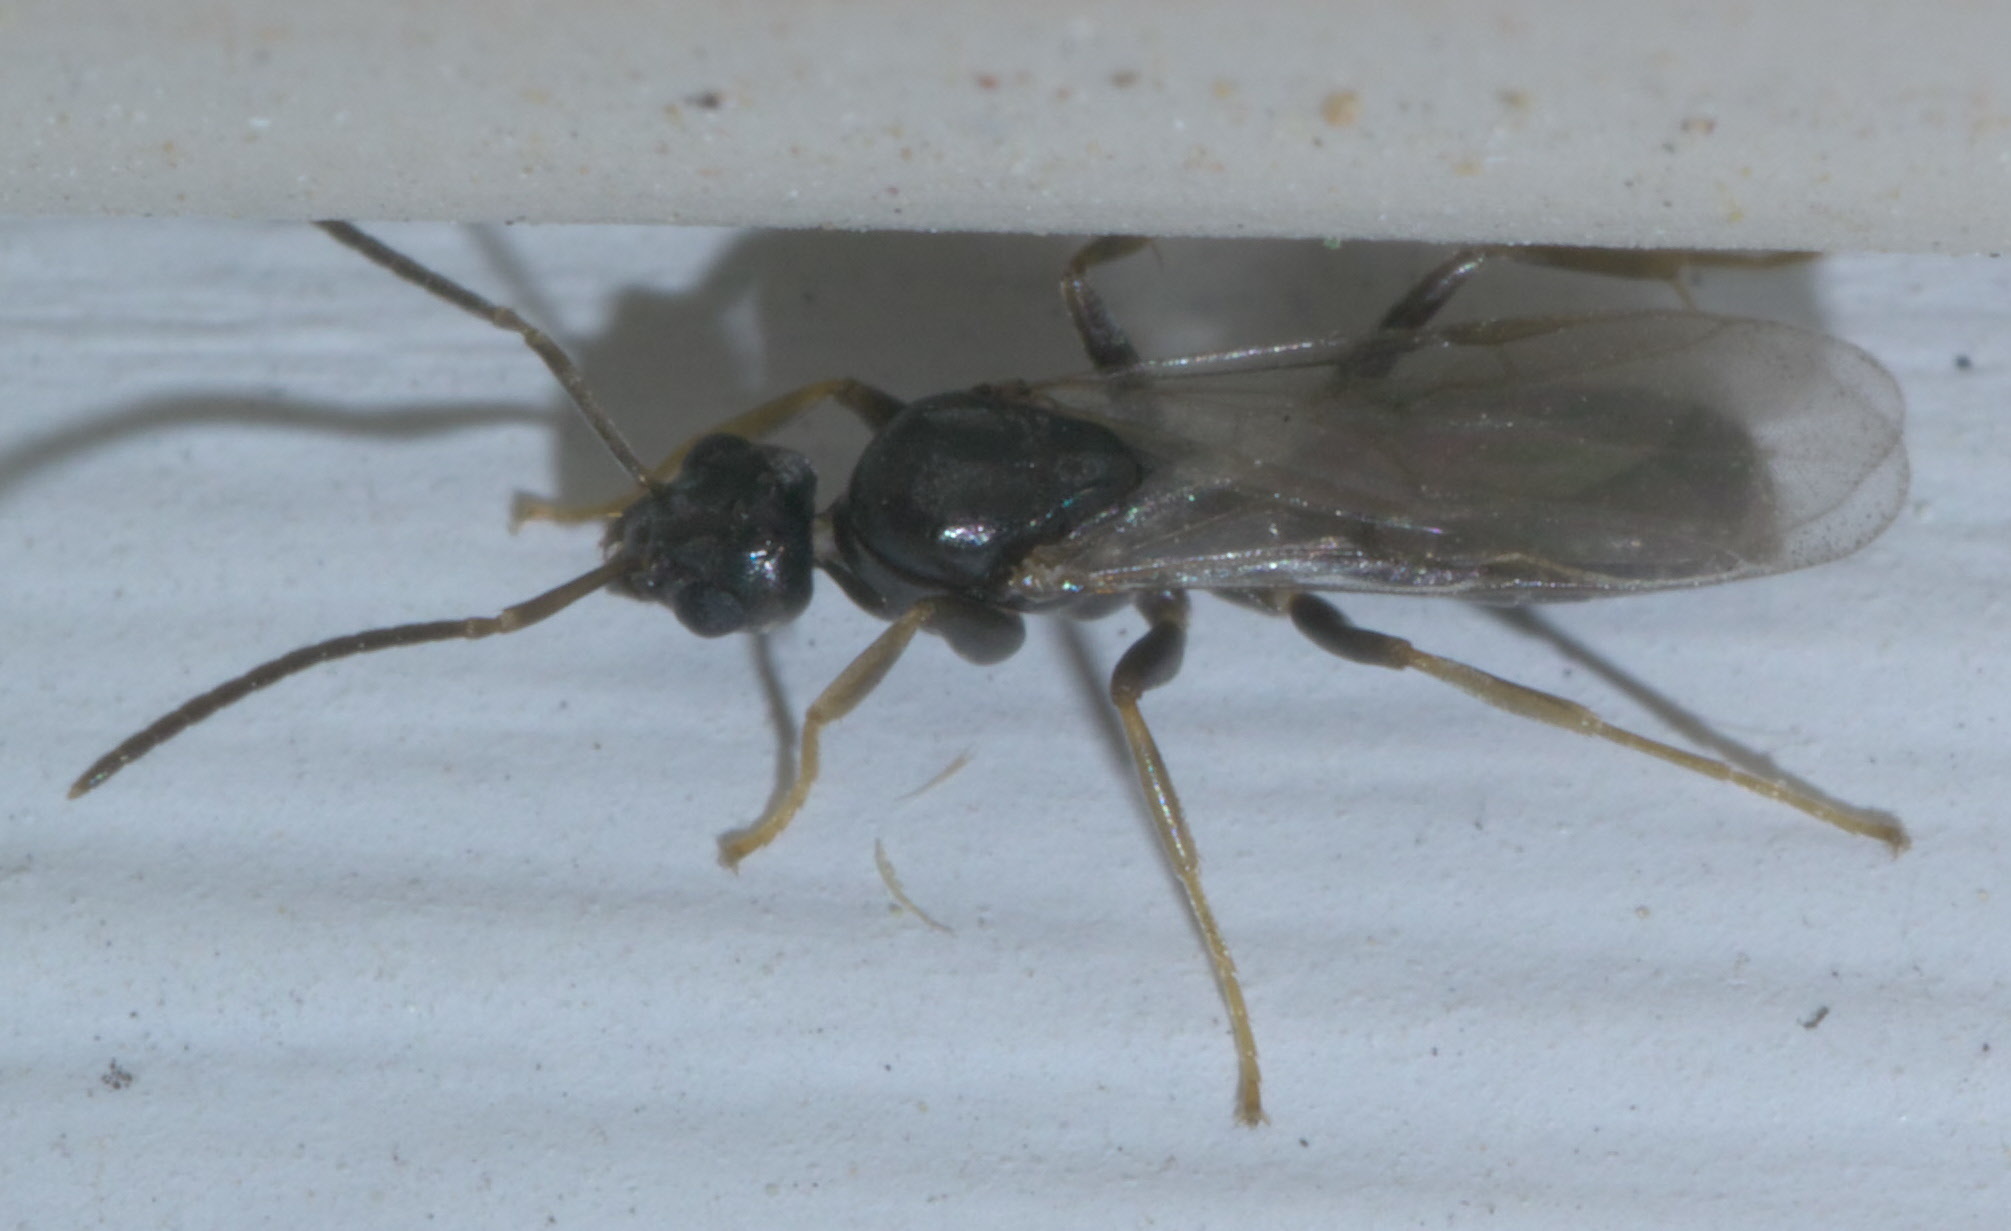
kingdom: Animalia
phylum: Arthropoda
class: Insecta
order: Hymenoptera
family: Formicidae
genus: Tapinoma
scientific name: Tapinoma sessile
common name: Odorous house ant
